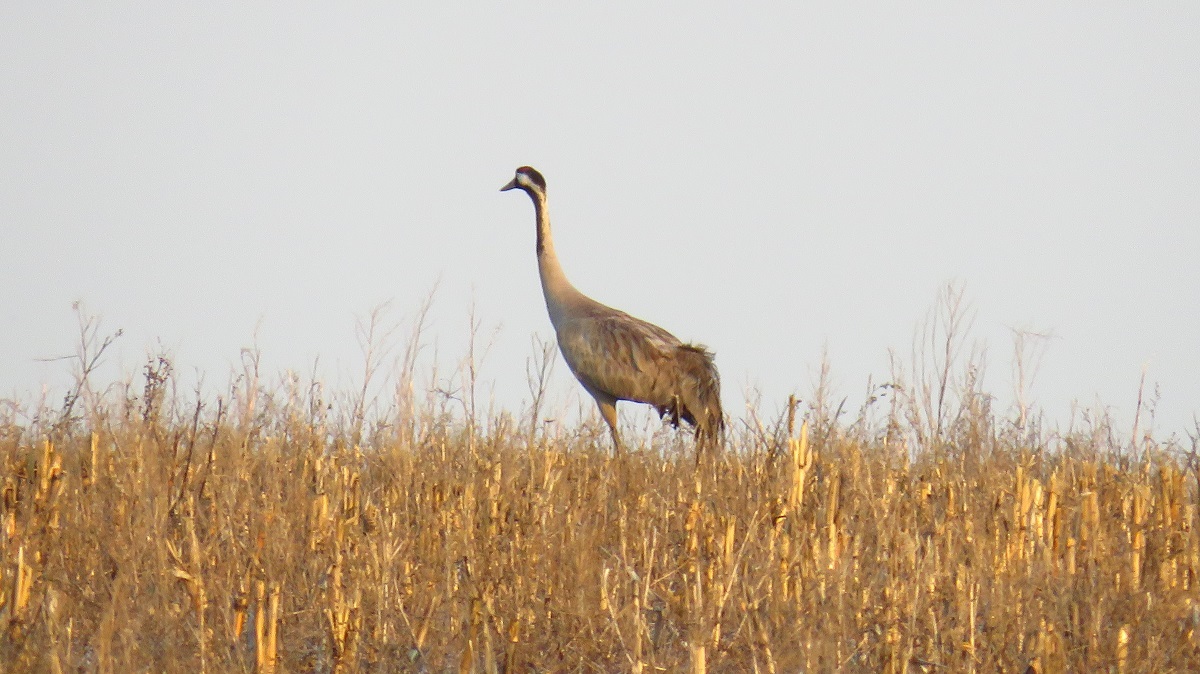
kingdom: Animalia
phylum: Chordata
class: Aves
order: Gruiformes
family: Gruidae
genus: Grus
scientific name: Grus grus
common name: Common crane
